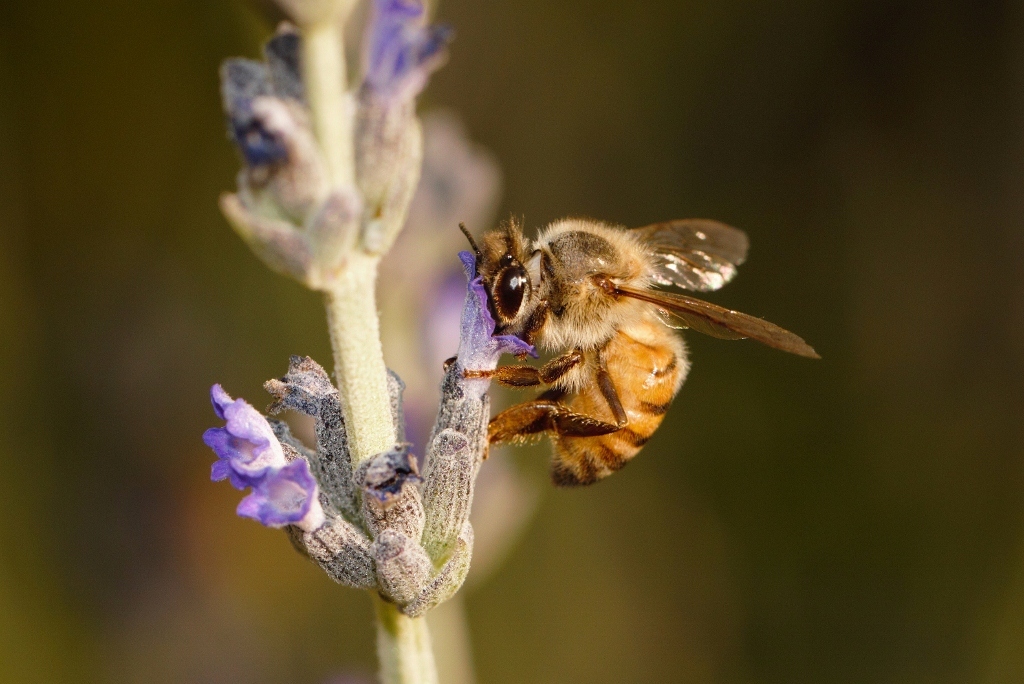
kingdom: Animalia
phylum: Arthropoda
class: Insecta
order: Hymenoptera
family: Apidae
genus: Apis
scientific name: Apis mellifera
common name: Honey bee
